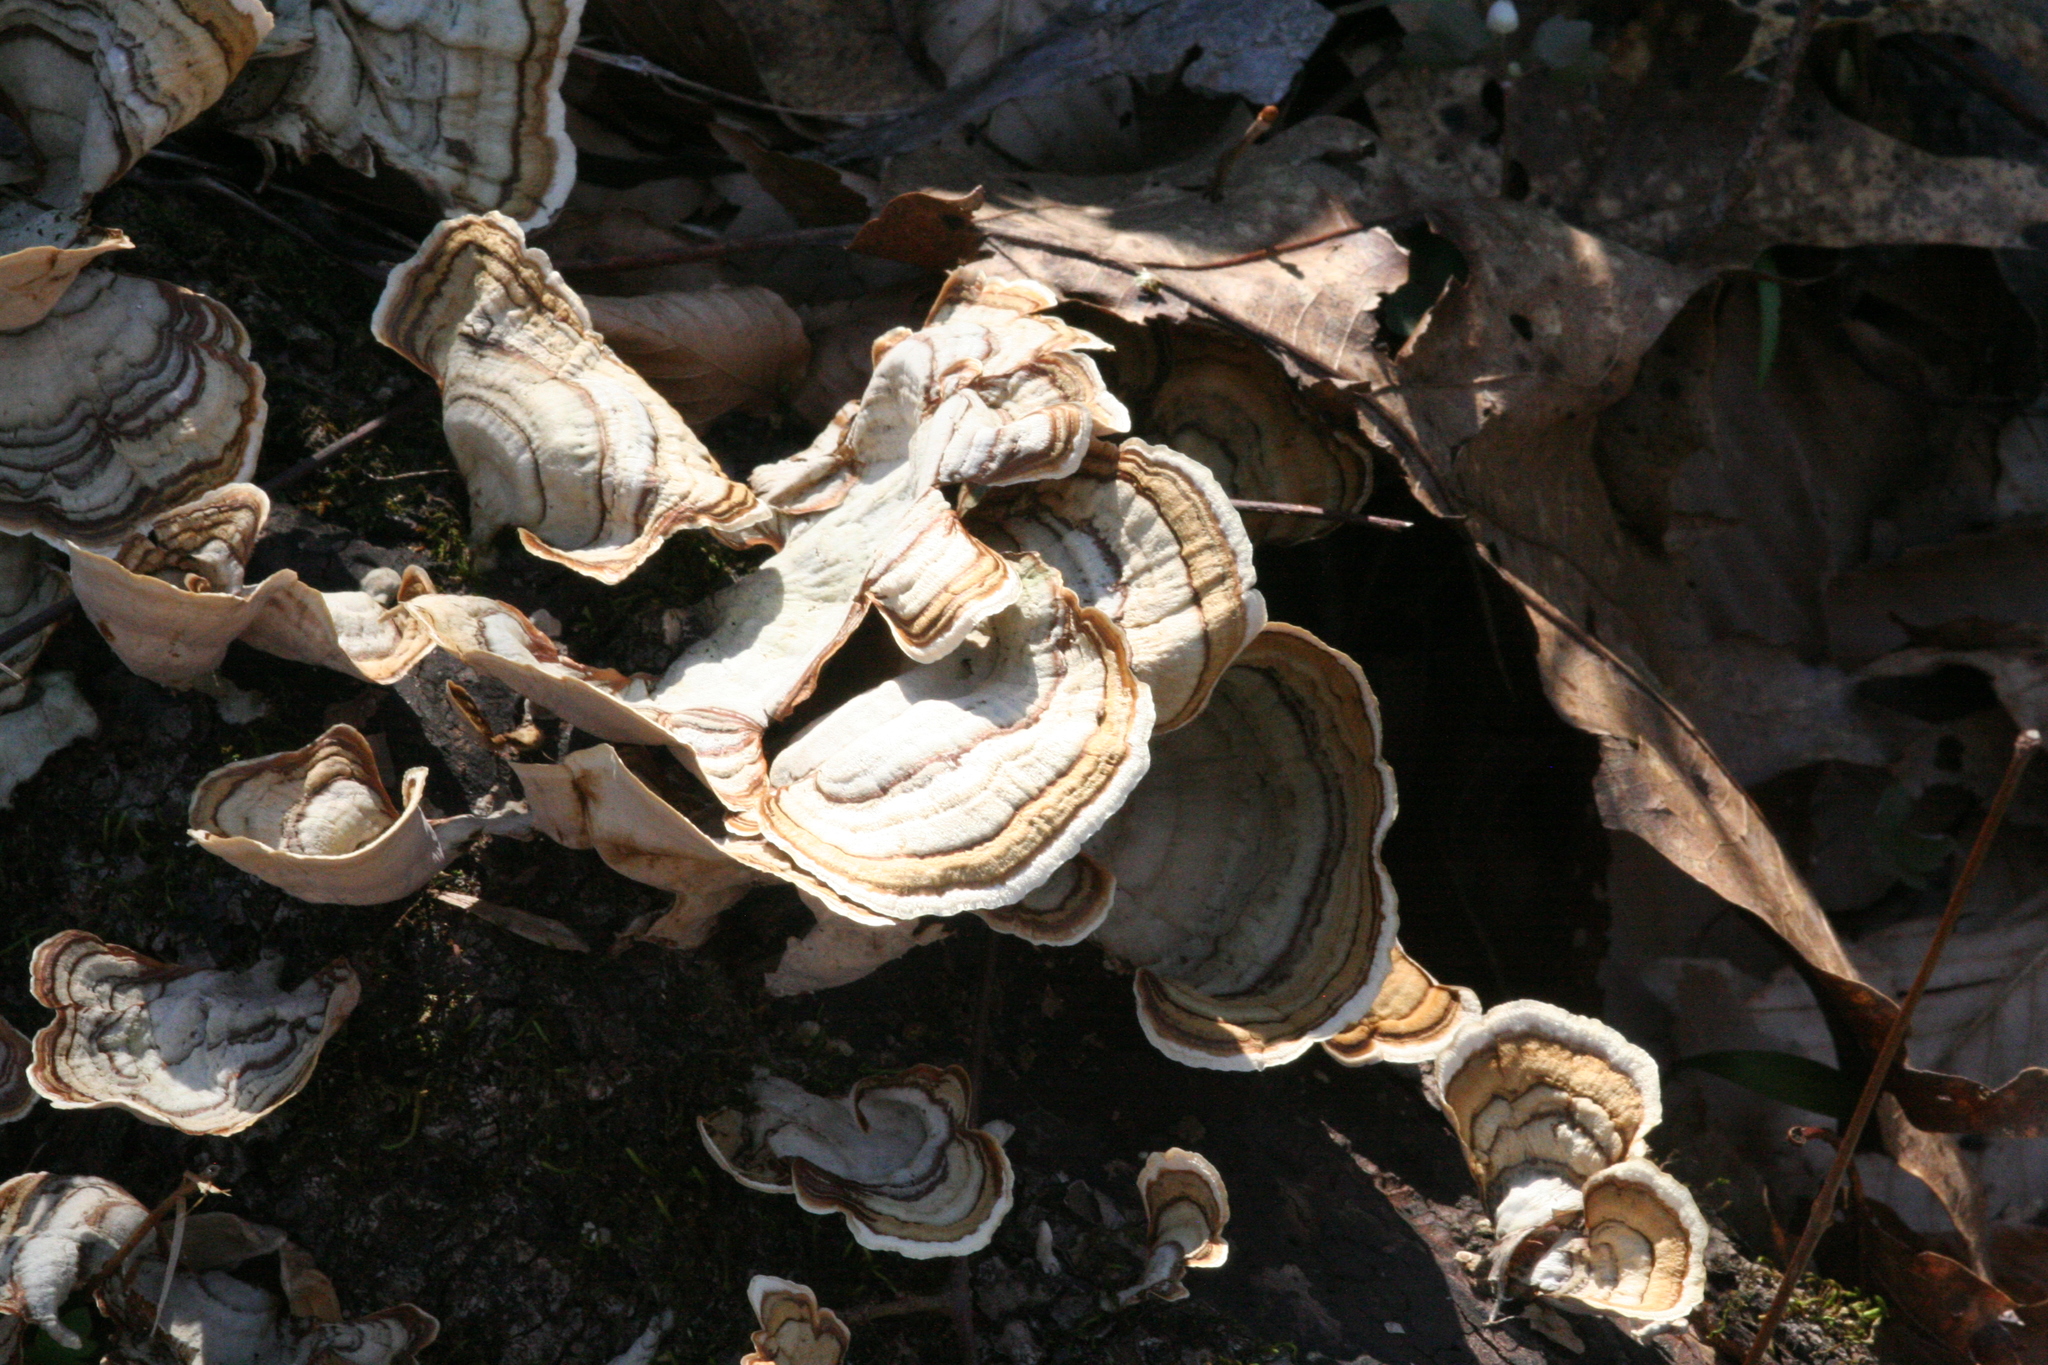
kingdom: Fungi
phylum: Basidiomycota
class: Agaricomycetes
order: Russulales
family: Stereaceae
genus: Stereum
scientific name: Stereum lobatum
